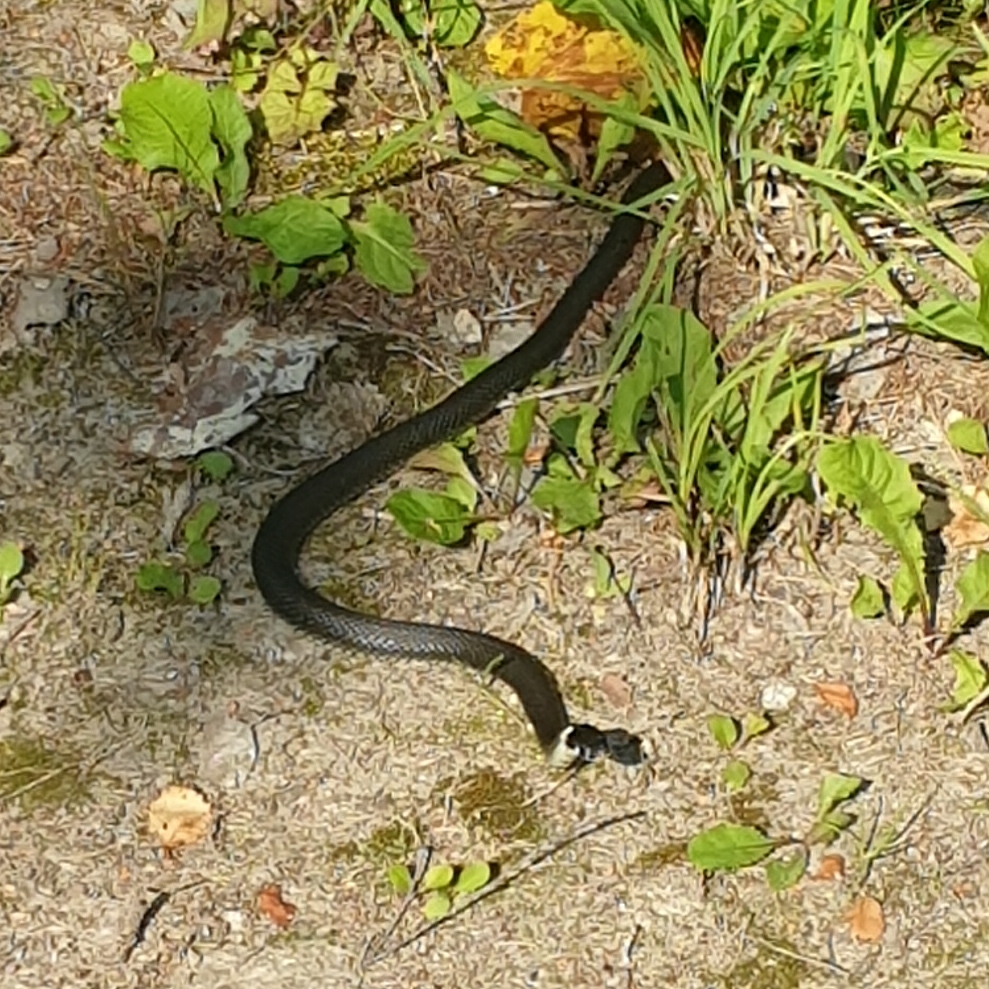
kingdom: Animalia
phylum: Chordata
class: Squamata
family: Colubridae
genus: Natrix
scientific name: Natrix natrix
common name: Grass snake
